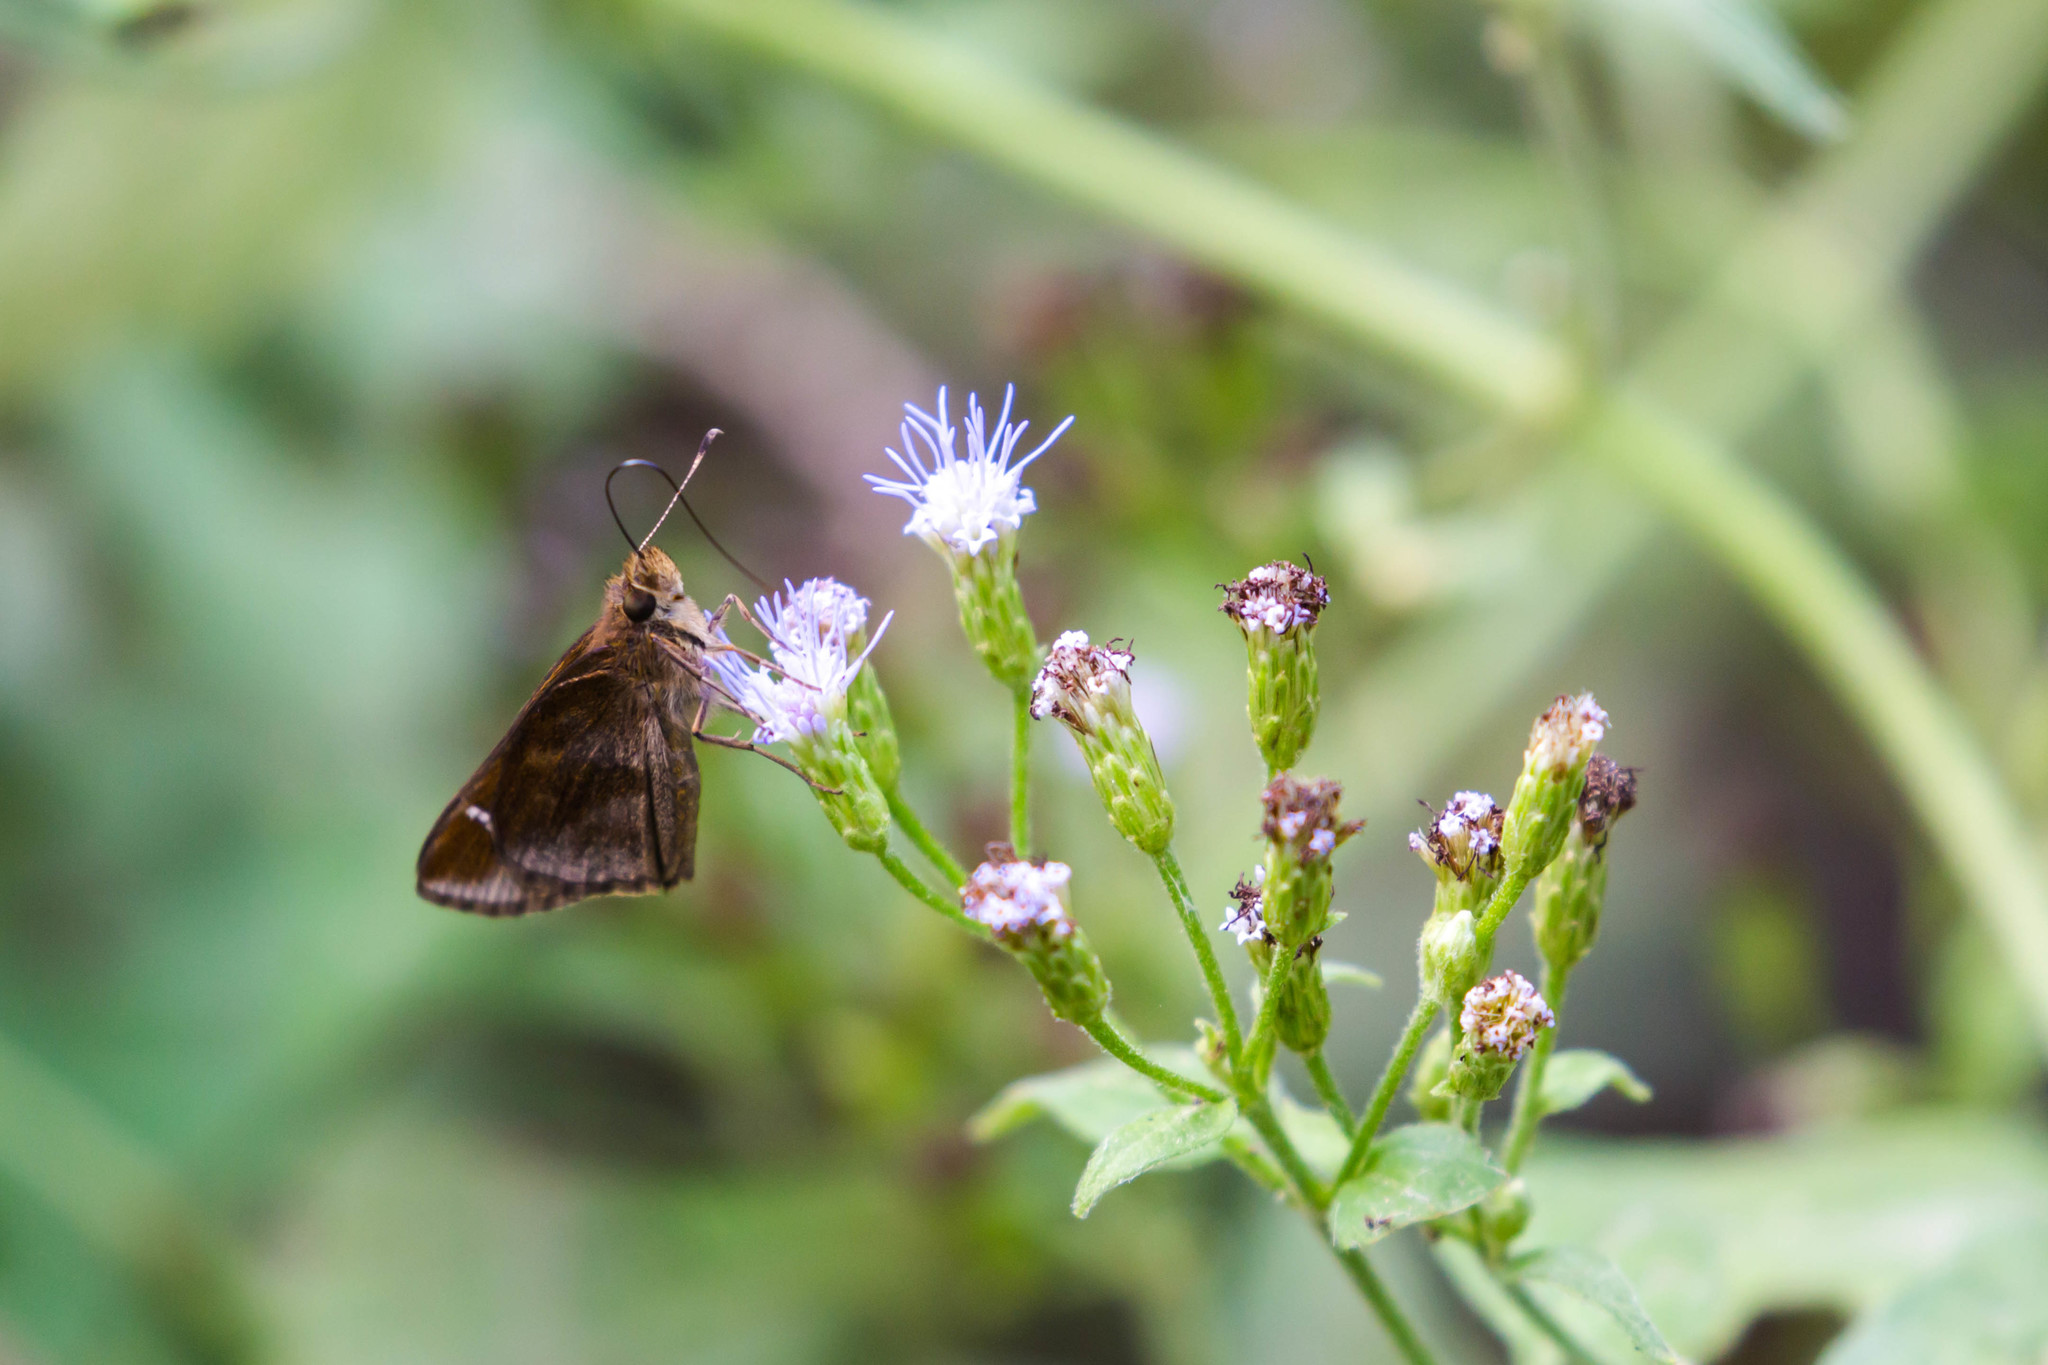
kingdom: Animalia
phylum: Arthropoda
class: Insecta
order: Lepidoptera
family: Hesperiidae
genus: Lerema
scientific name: Lerema accius
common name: Clouded skipper
